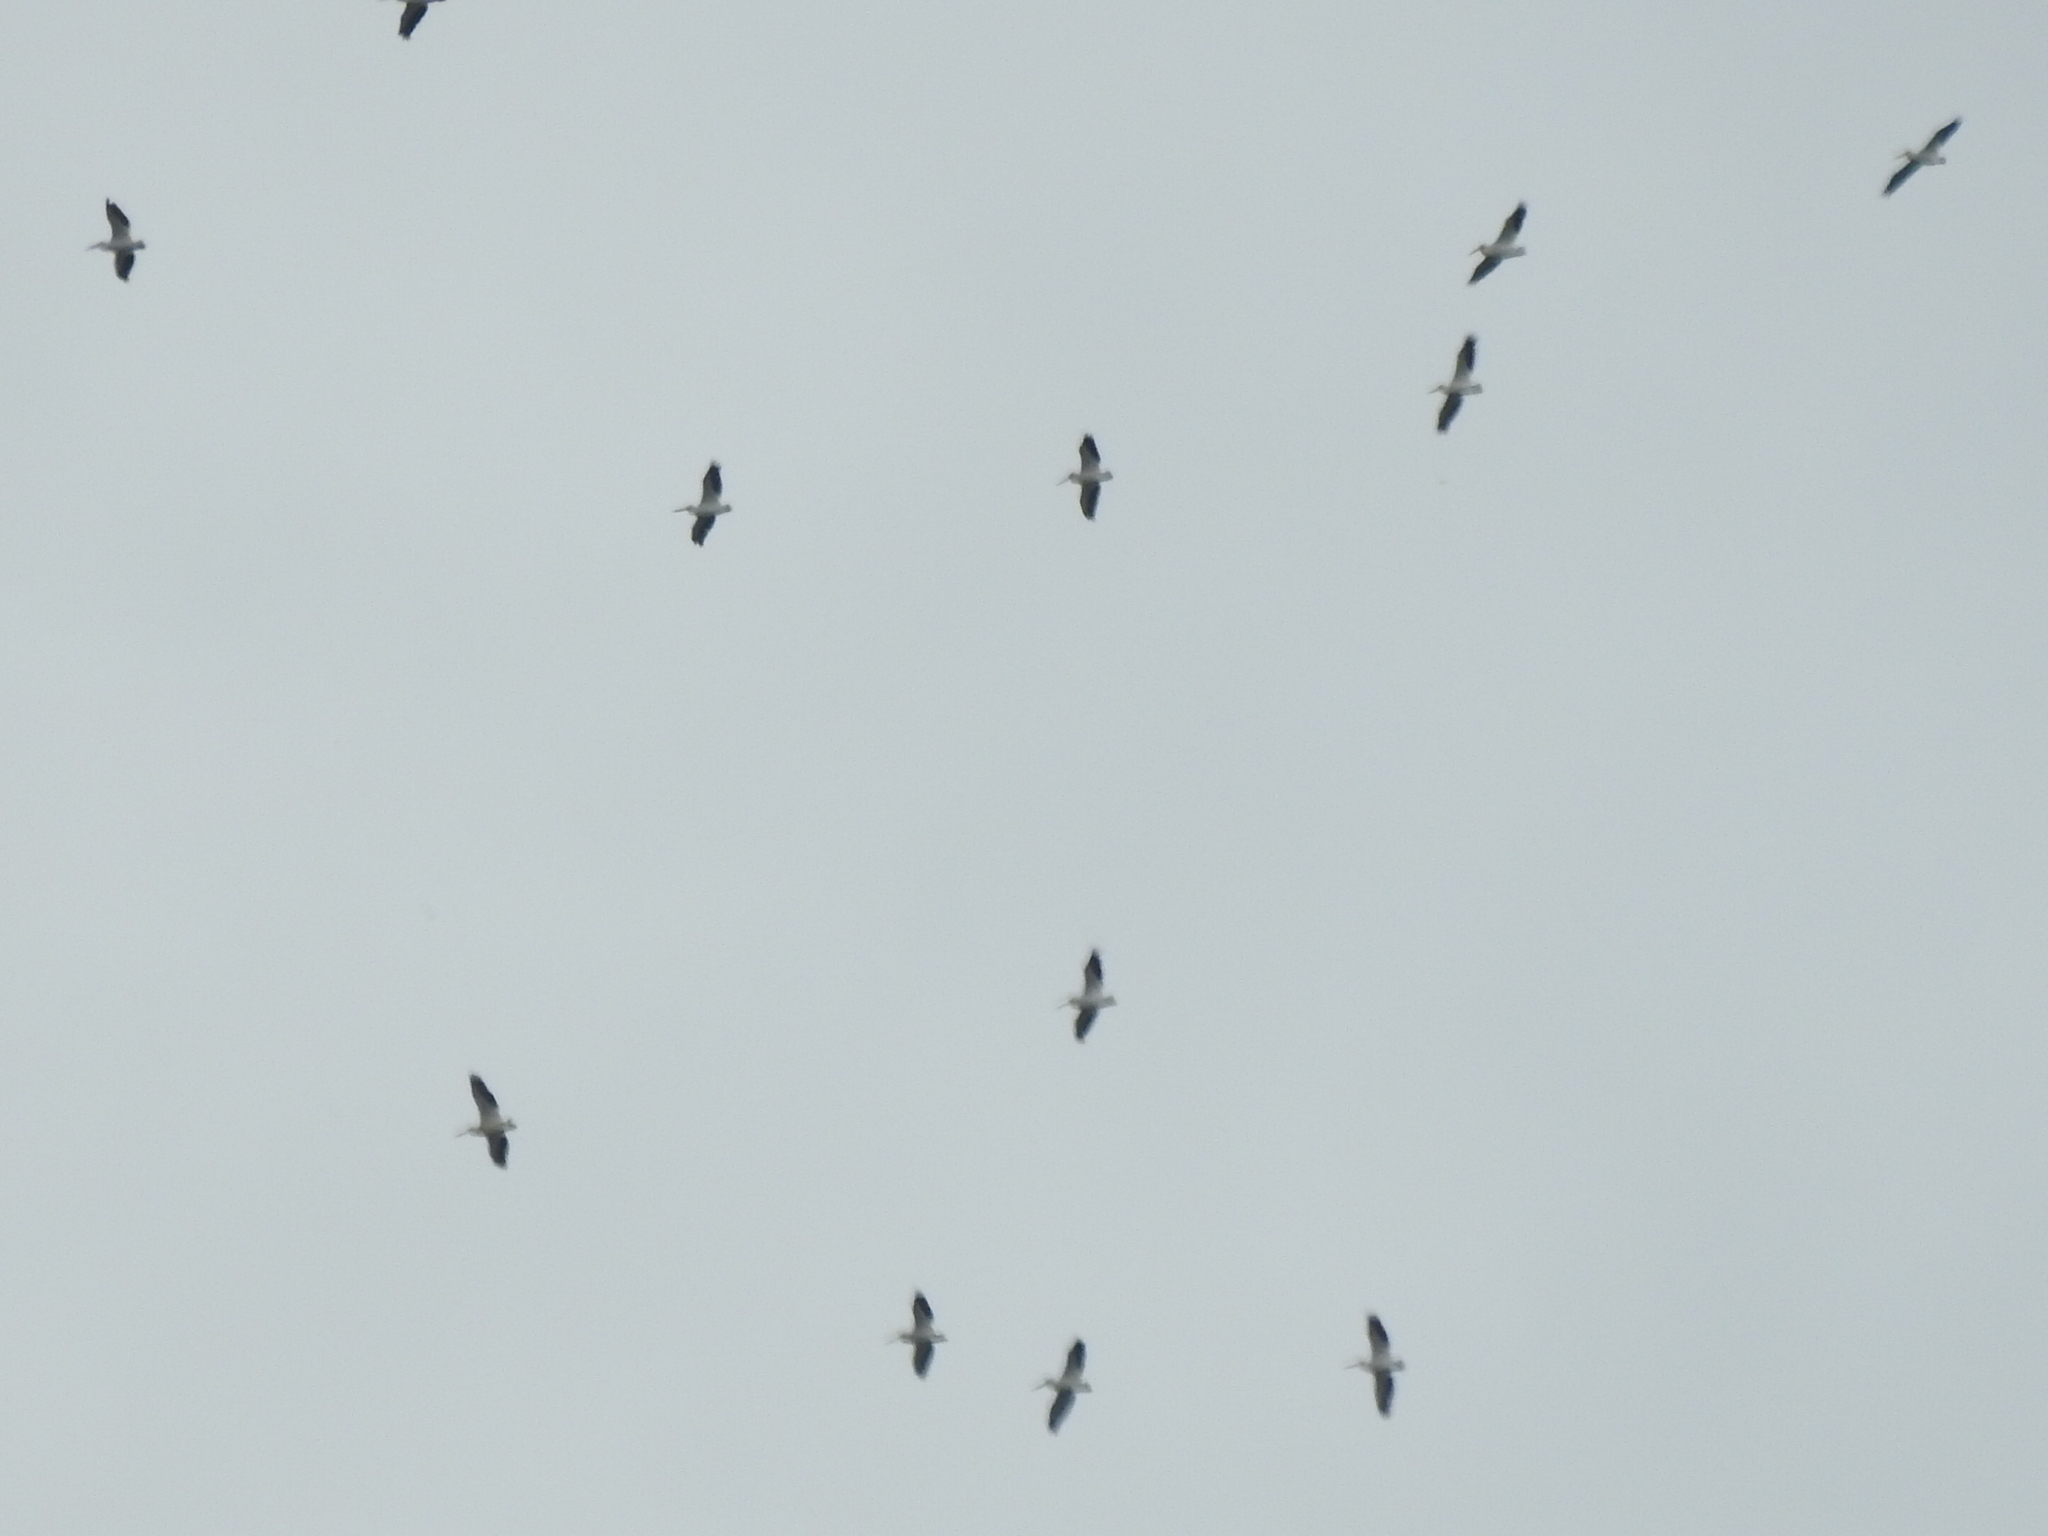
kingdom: Animalia
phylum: Chordata
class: Aves
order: Pelecaniformes
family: Pelecanidae
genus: Pelecanus
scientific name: Pelecanus erythrorhynchos
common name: American white pelican
